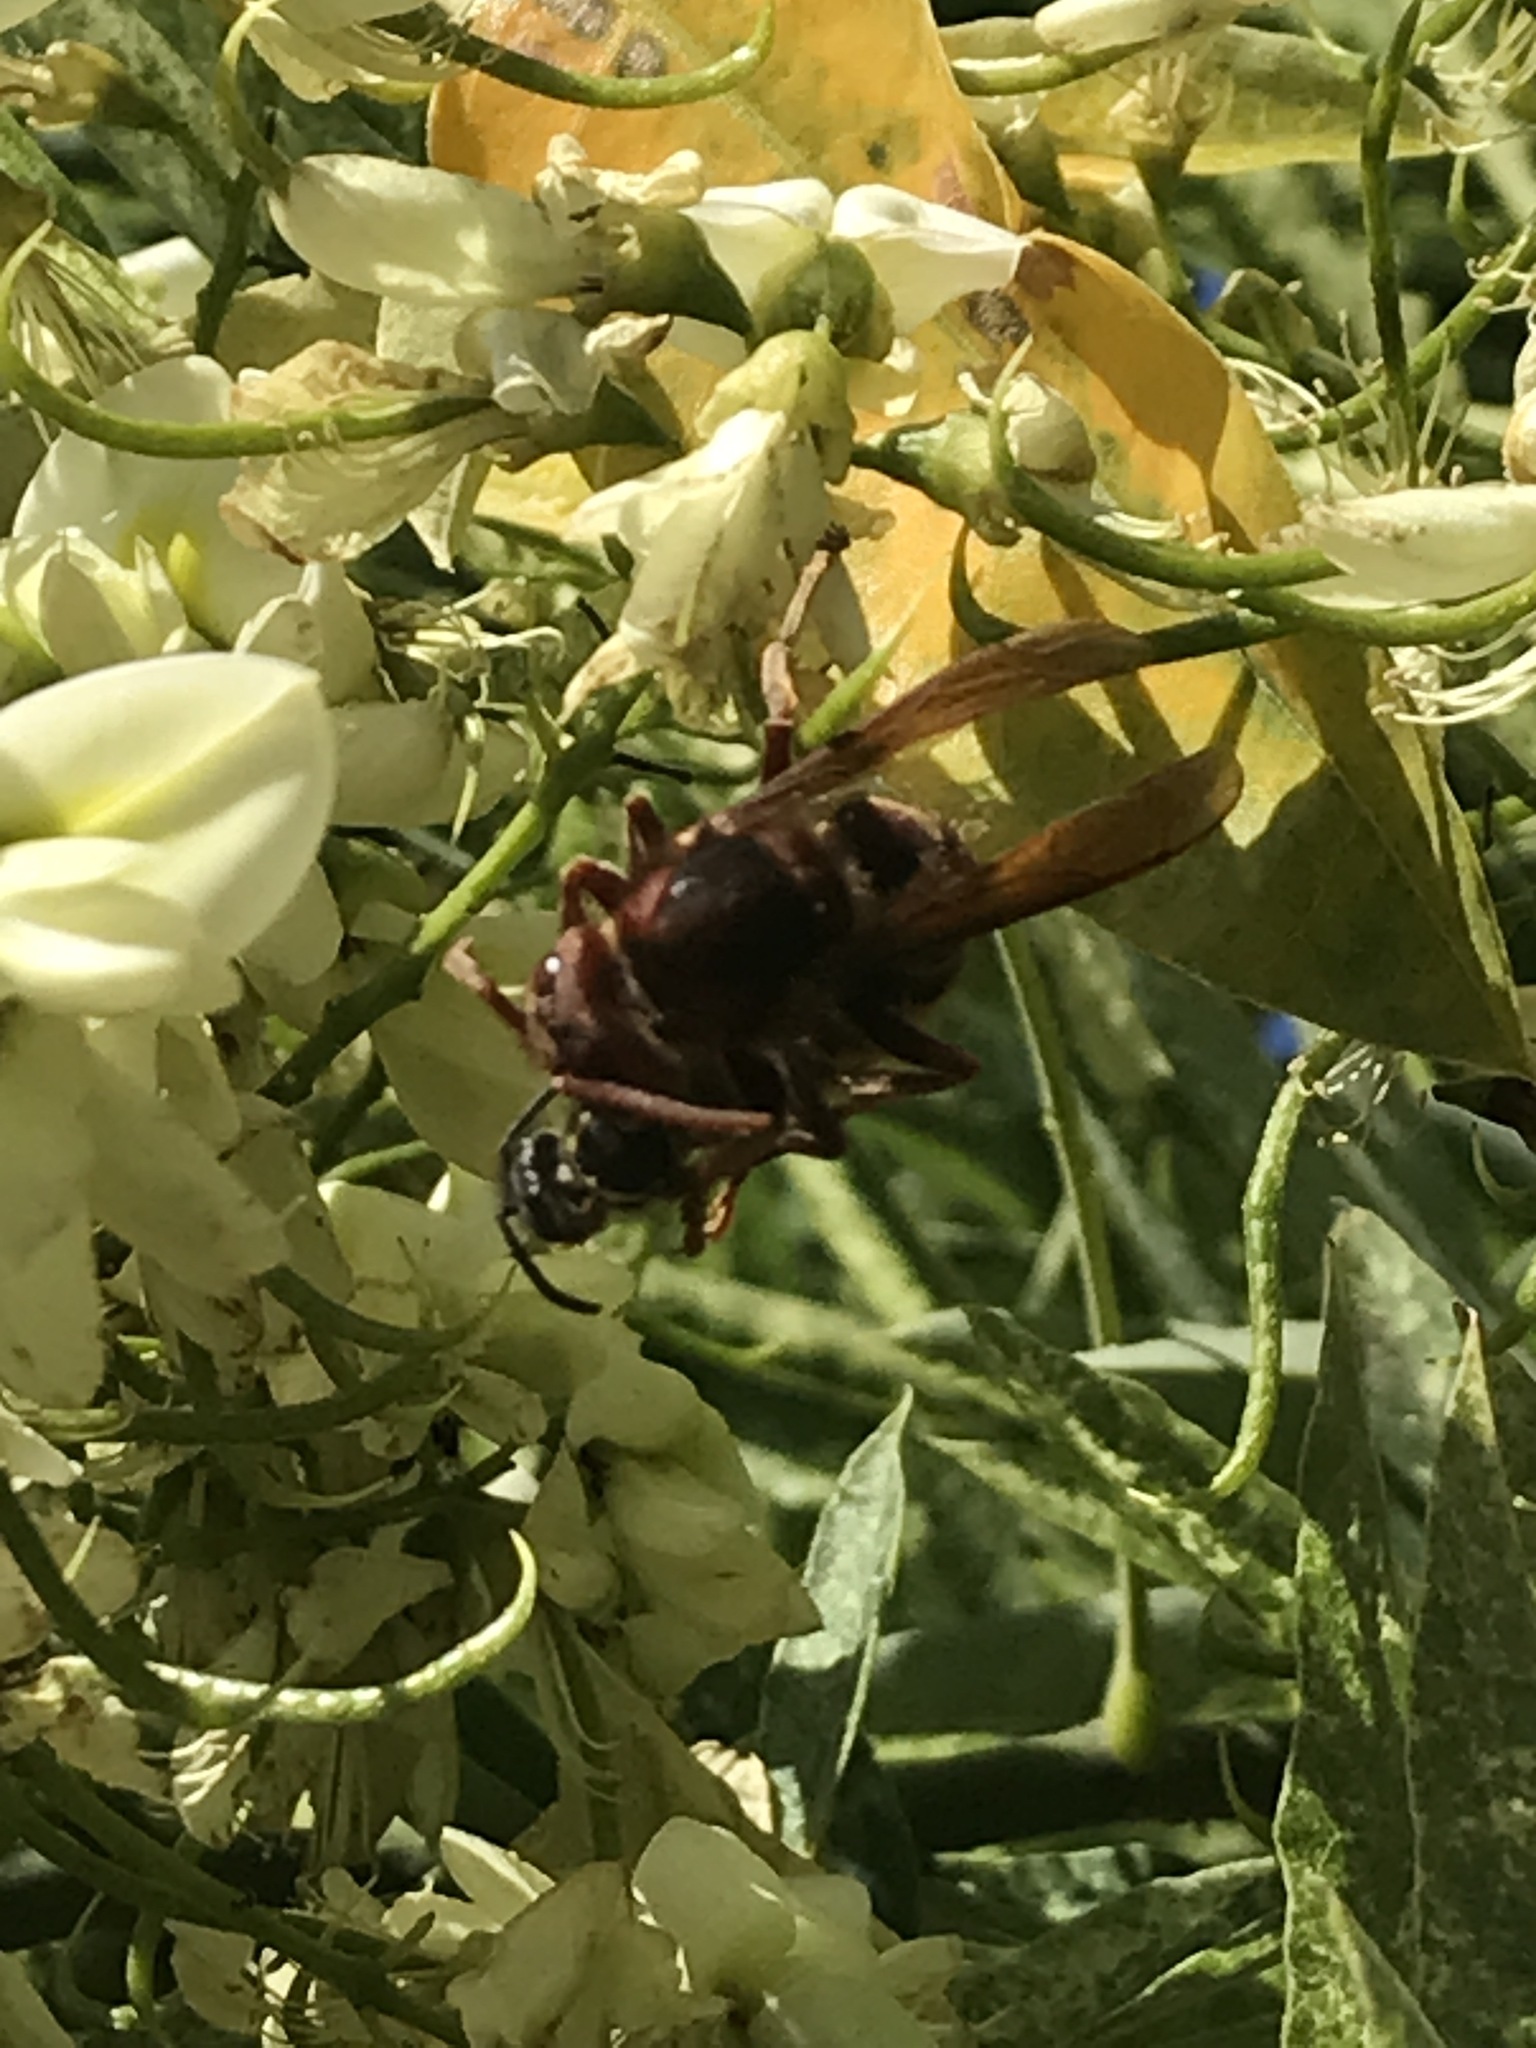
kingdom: Animalia
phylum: Arthropoda
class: Insecta
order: Hymenoptera
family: Vespidae
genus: Vespa
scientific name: Vespa crabro
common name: Hornet
